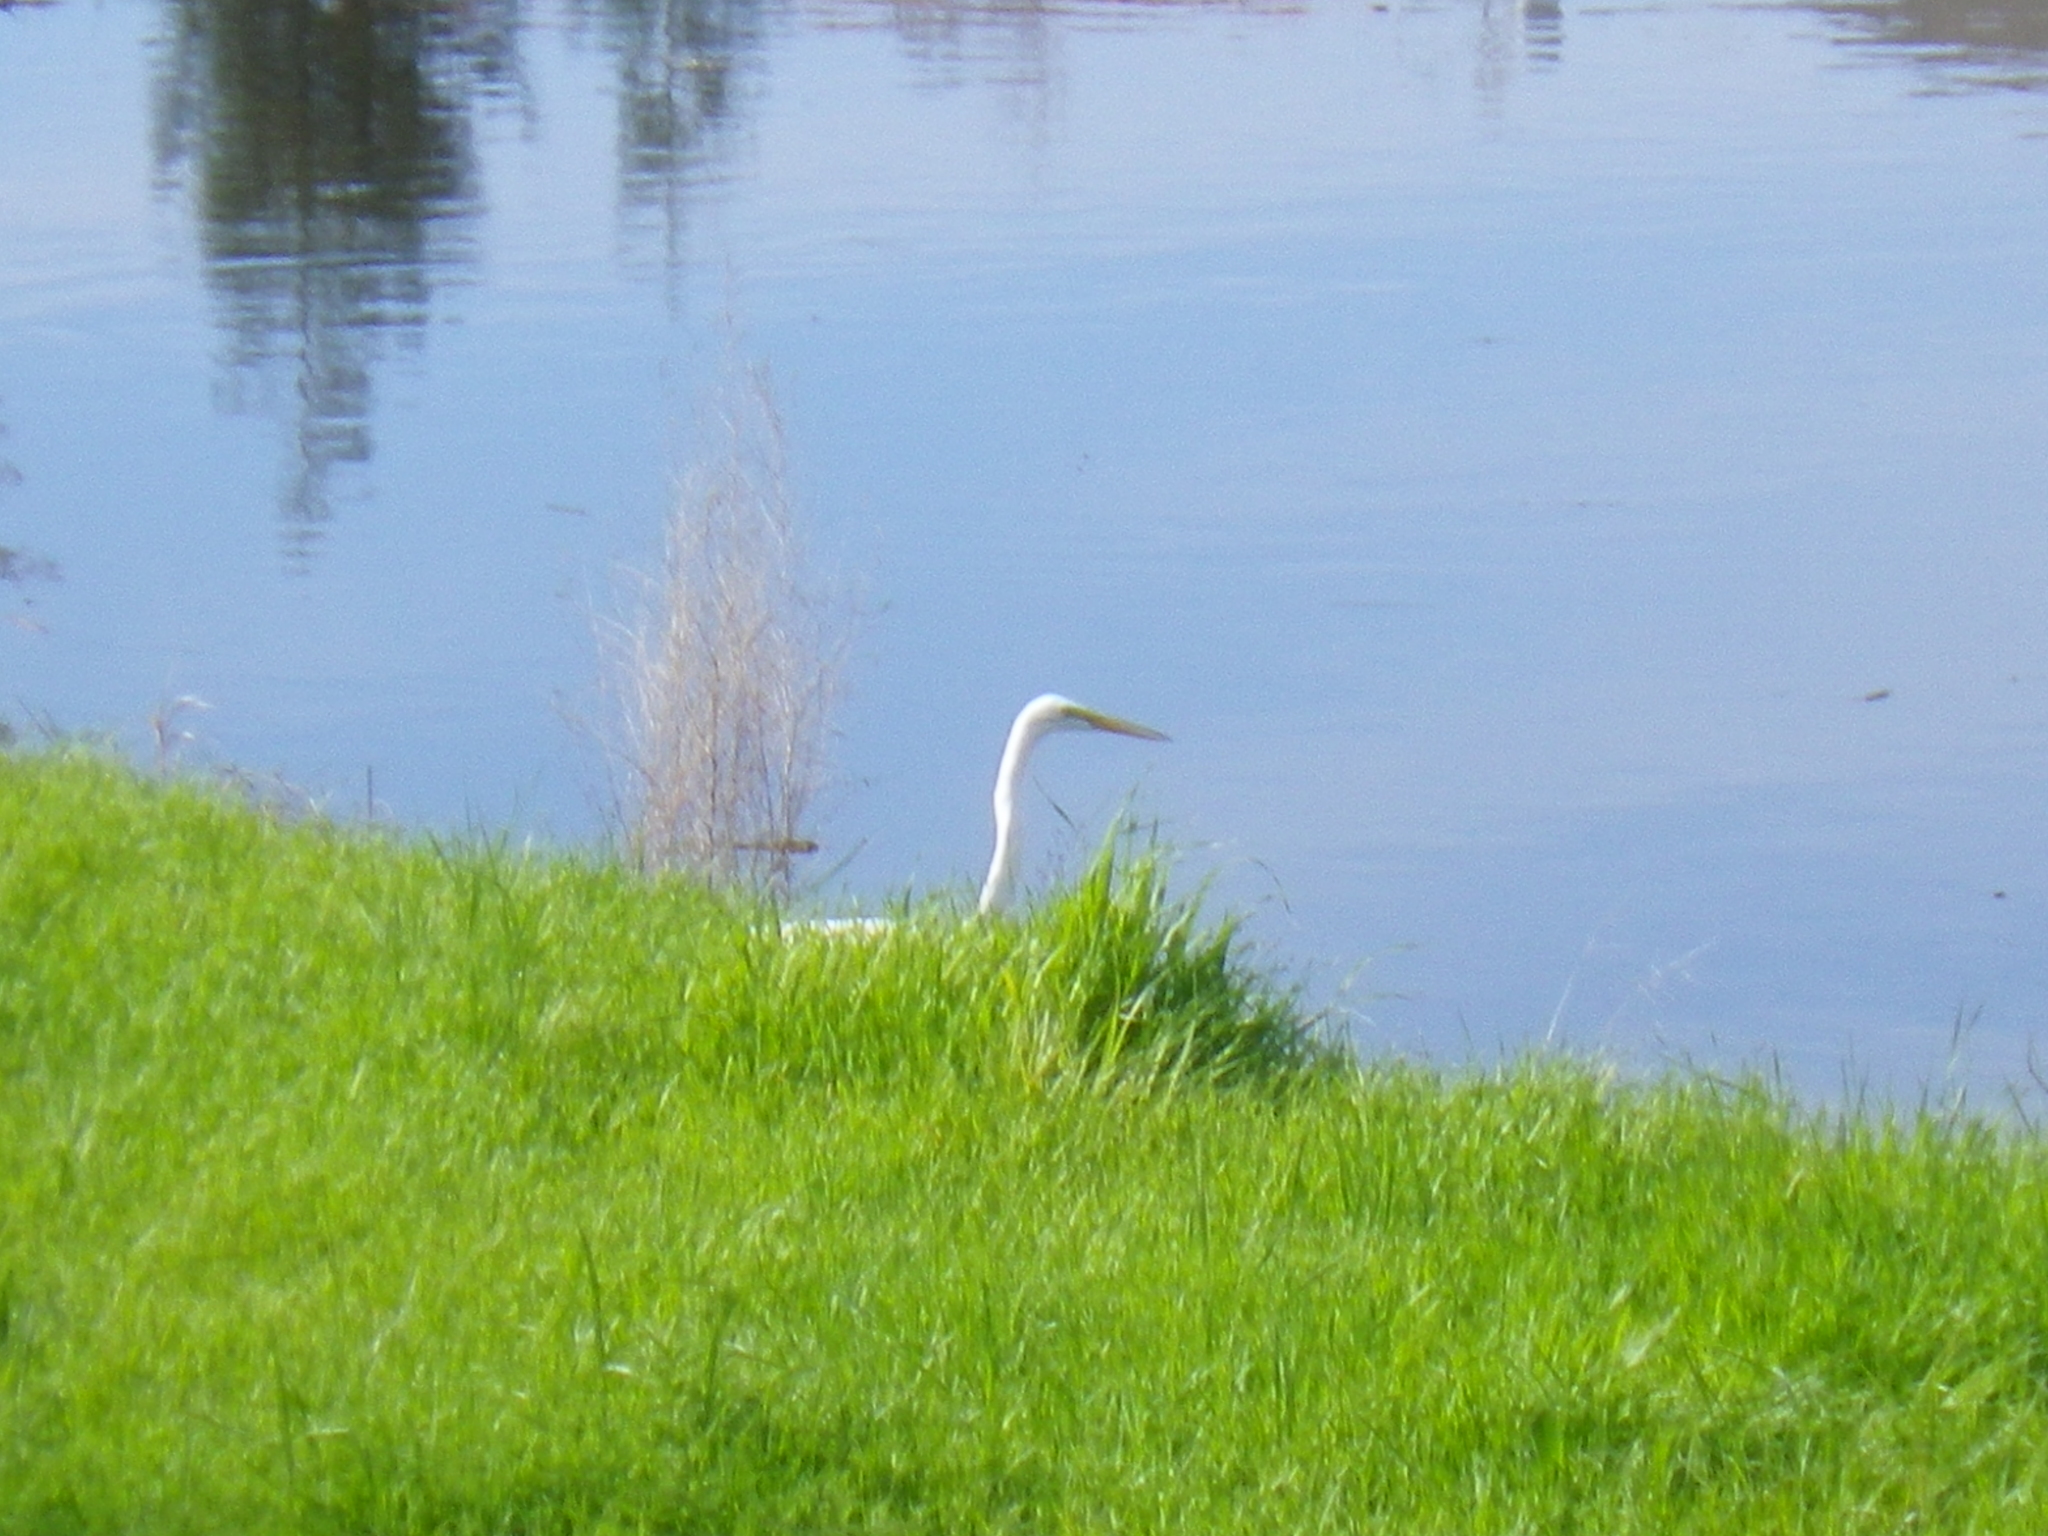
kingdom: Animalia
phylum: Chordata
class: Aves
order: Pelecaniformes
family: Ardeidae
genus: Ardea
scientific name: Ardea alba
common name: Great egret
